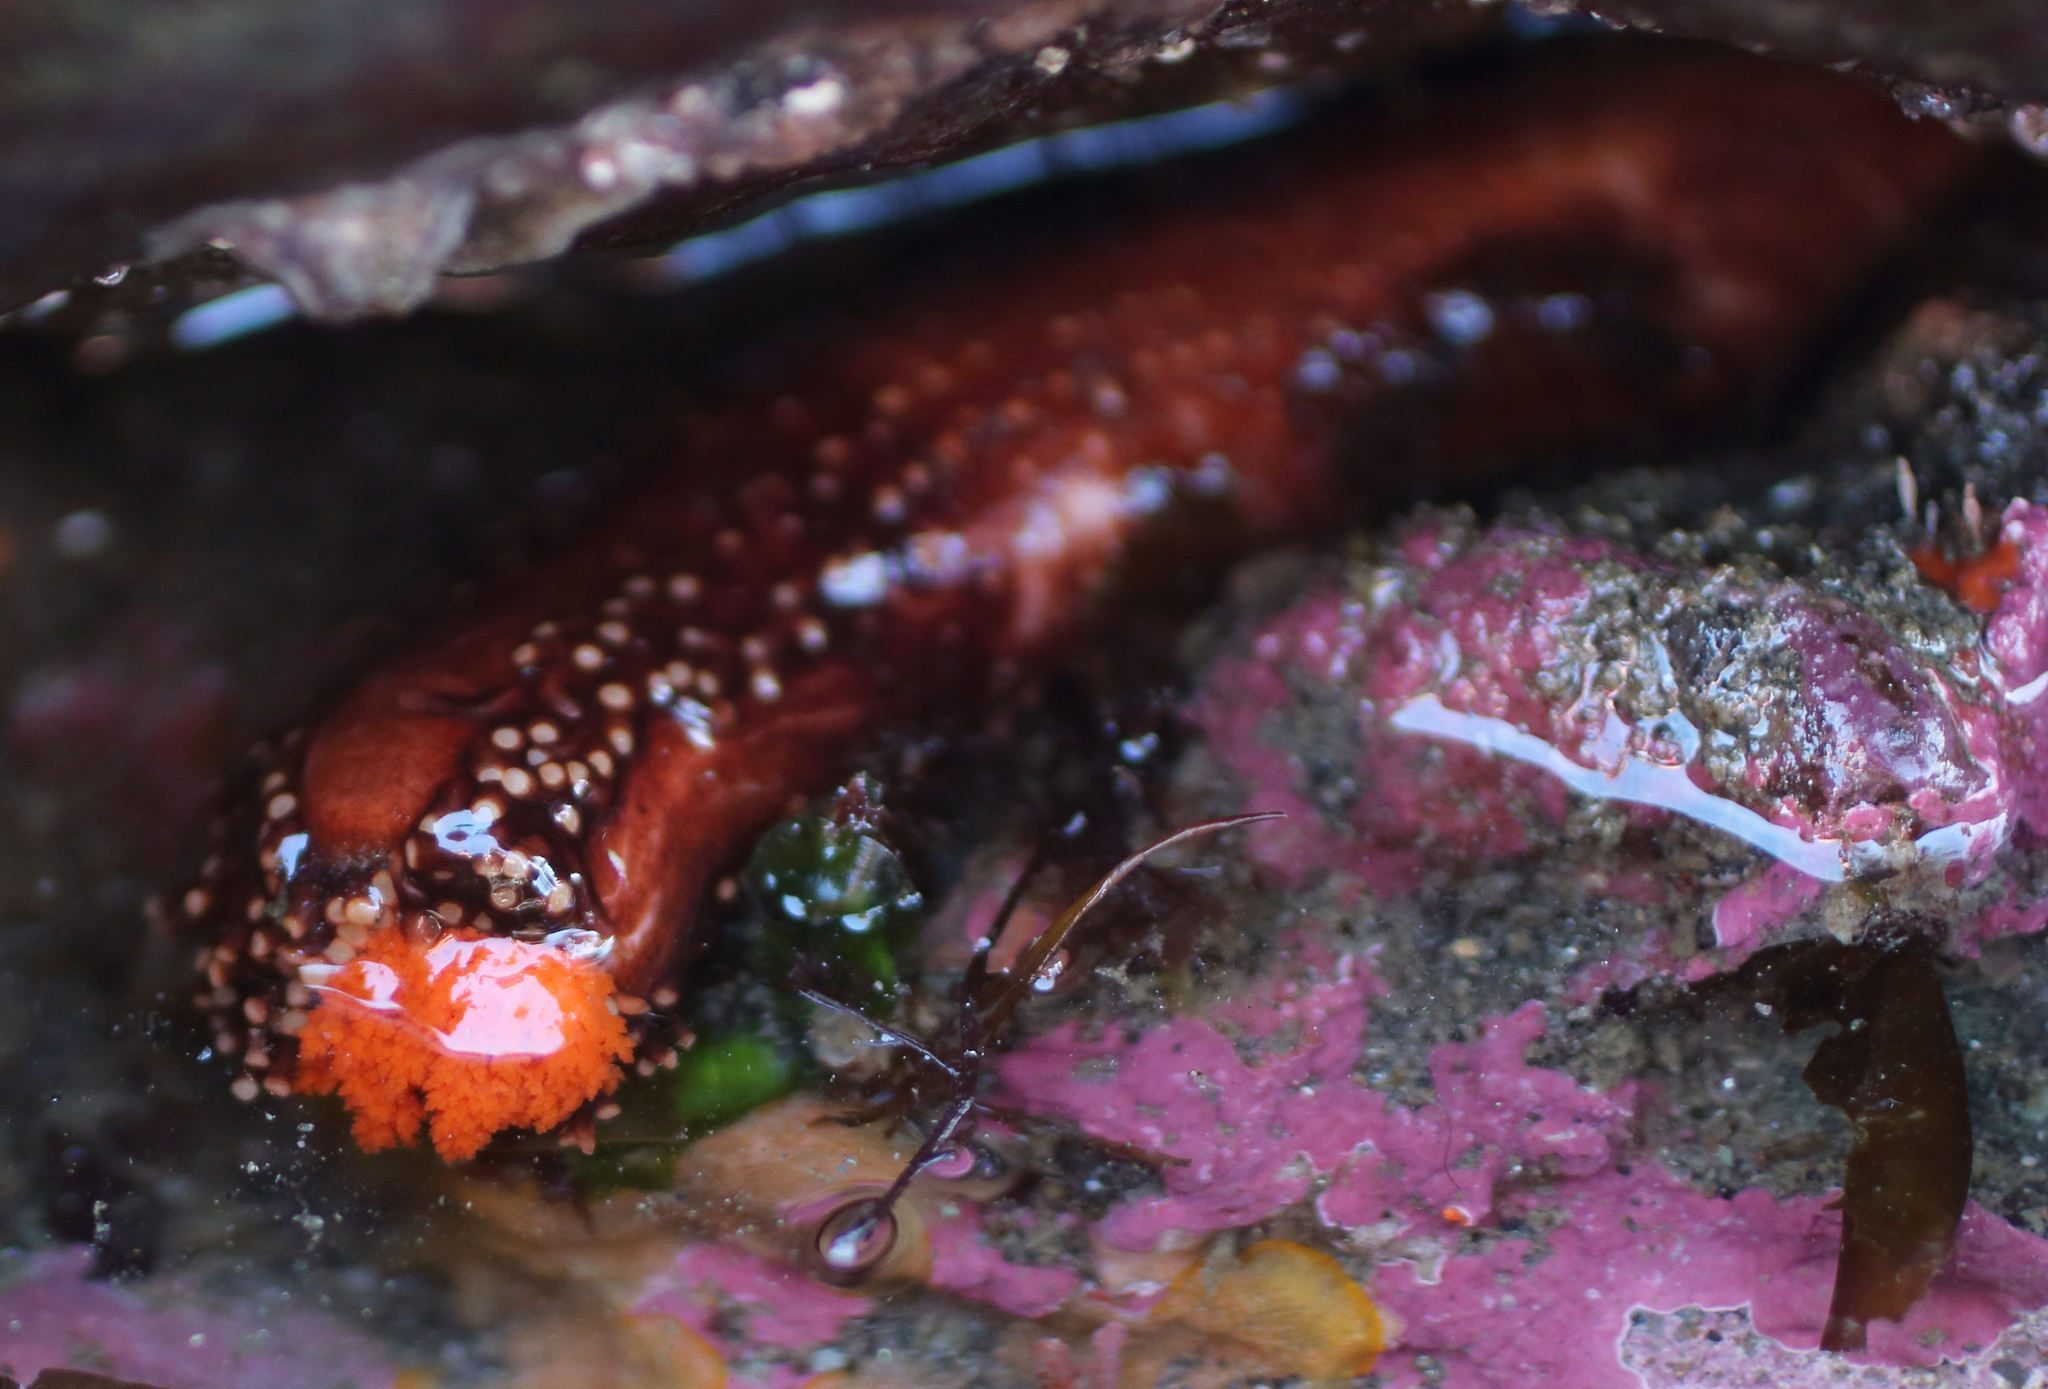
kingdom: Animalia
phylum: Echinodermata
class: Holothuroidea
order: Dendrochirotida
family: Cucumariidae
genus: Cucumaria
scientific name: Cucumaria miniata
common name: Orange sea cucumber
